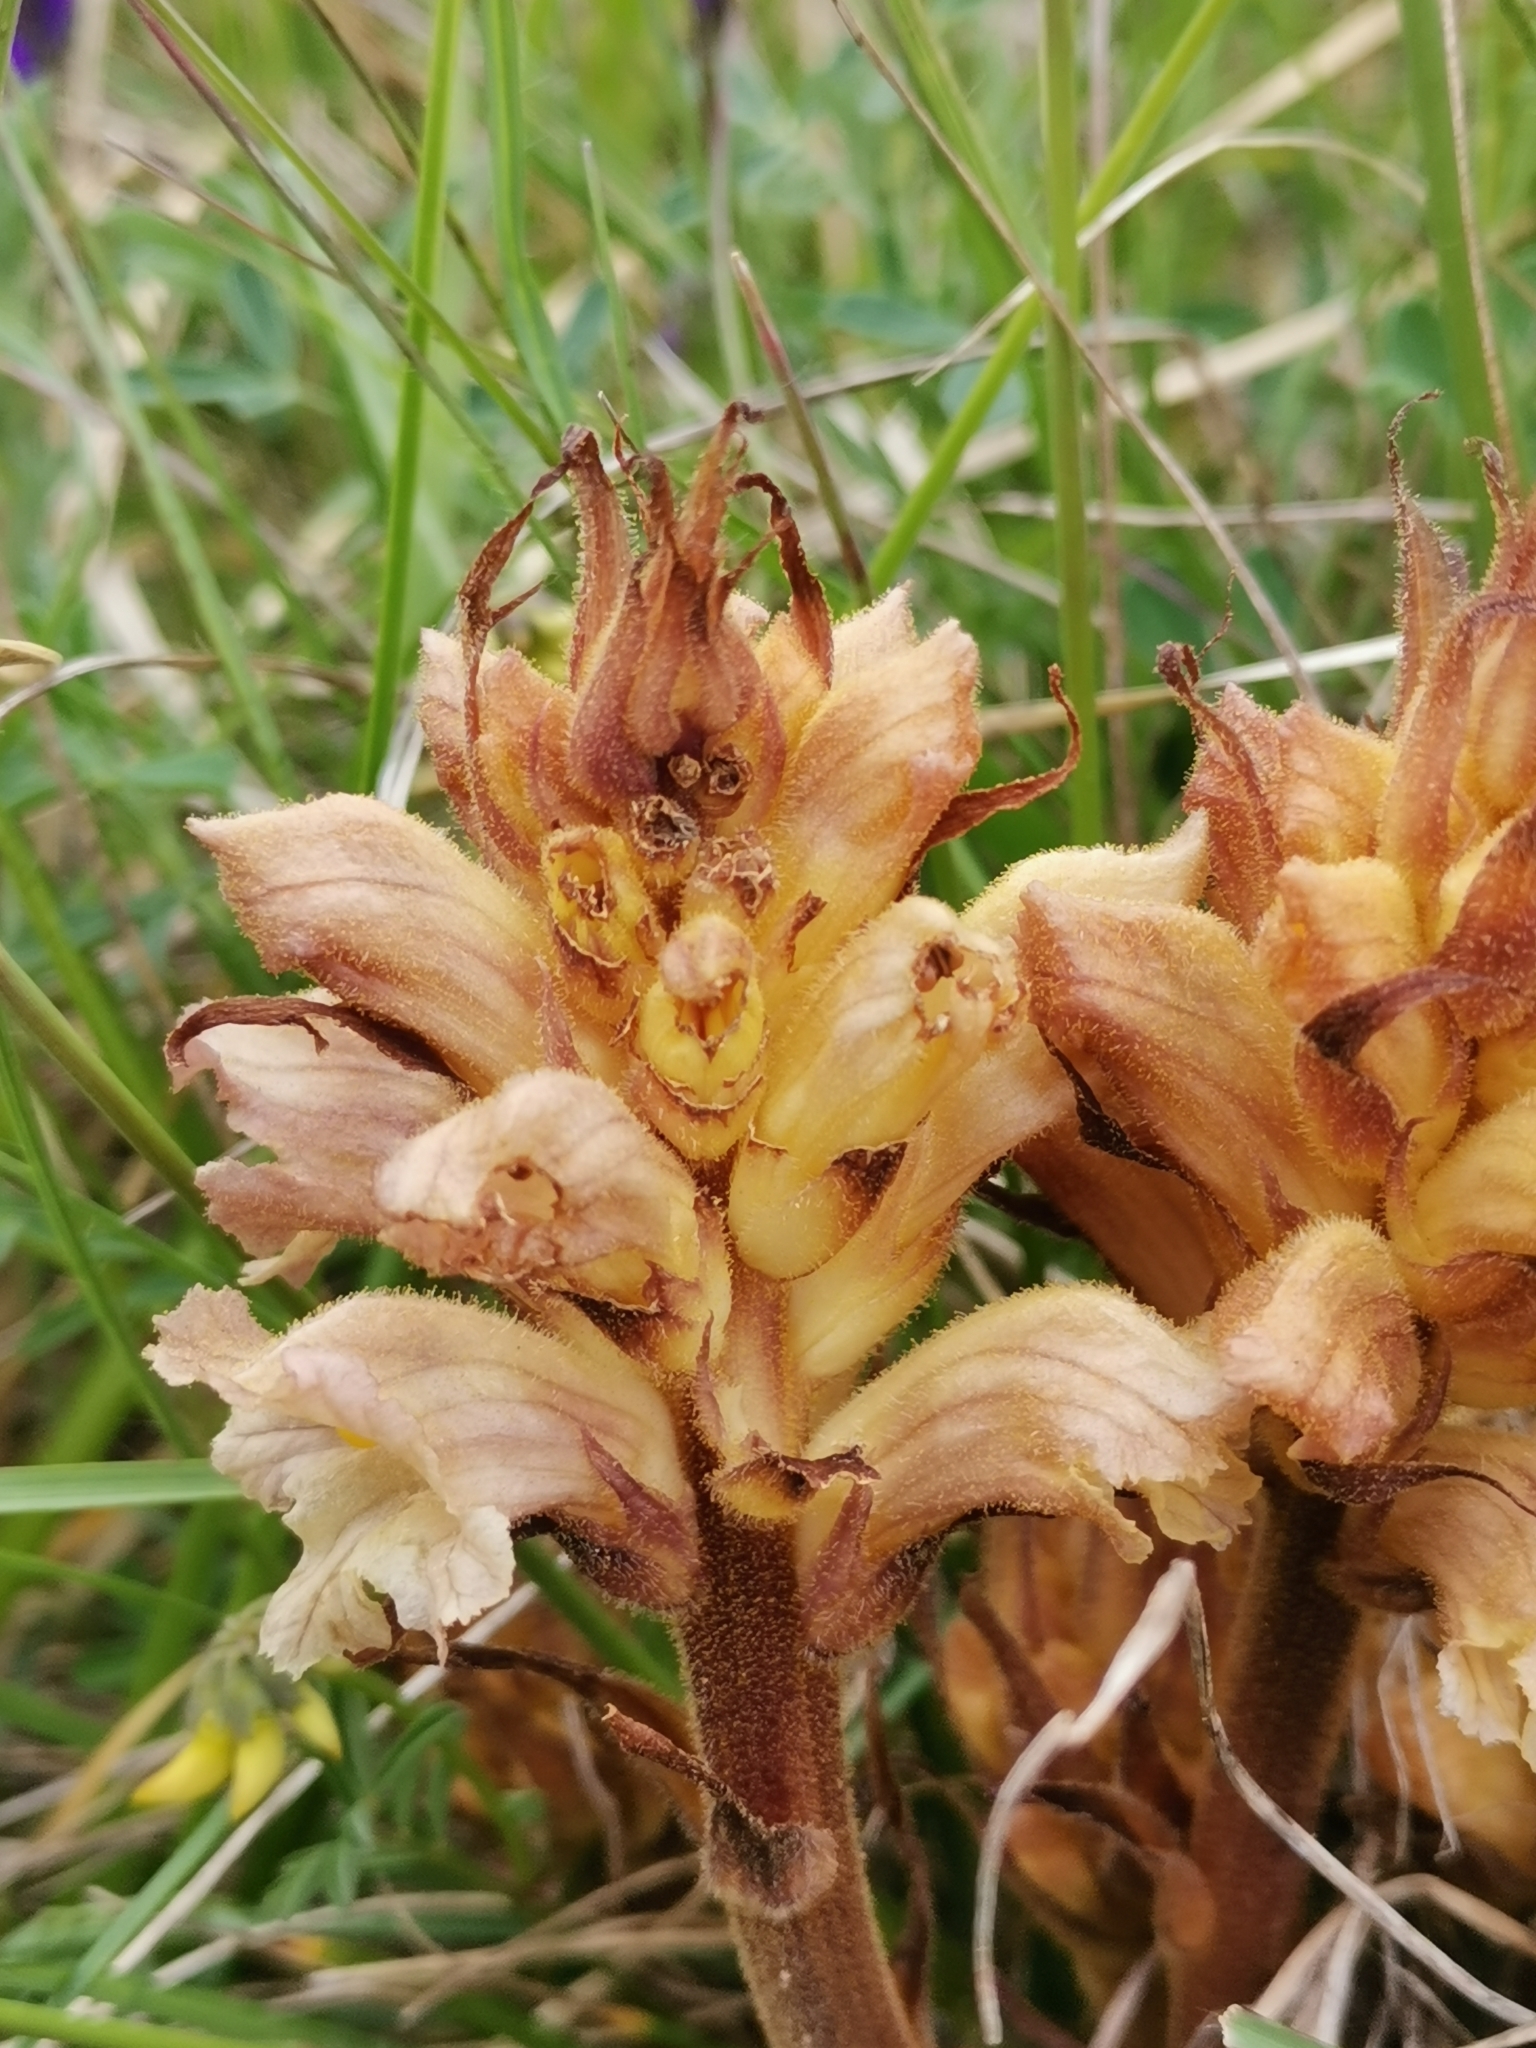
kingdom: Plantae
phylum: Tracheophyta
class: Magnoliopsida
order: Lamiales
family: Orobanchaceae
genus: Orobanche
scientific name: Orobanche lutea
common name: Yellow broomrape
